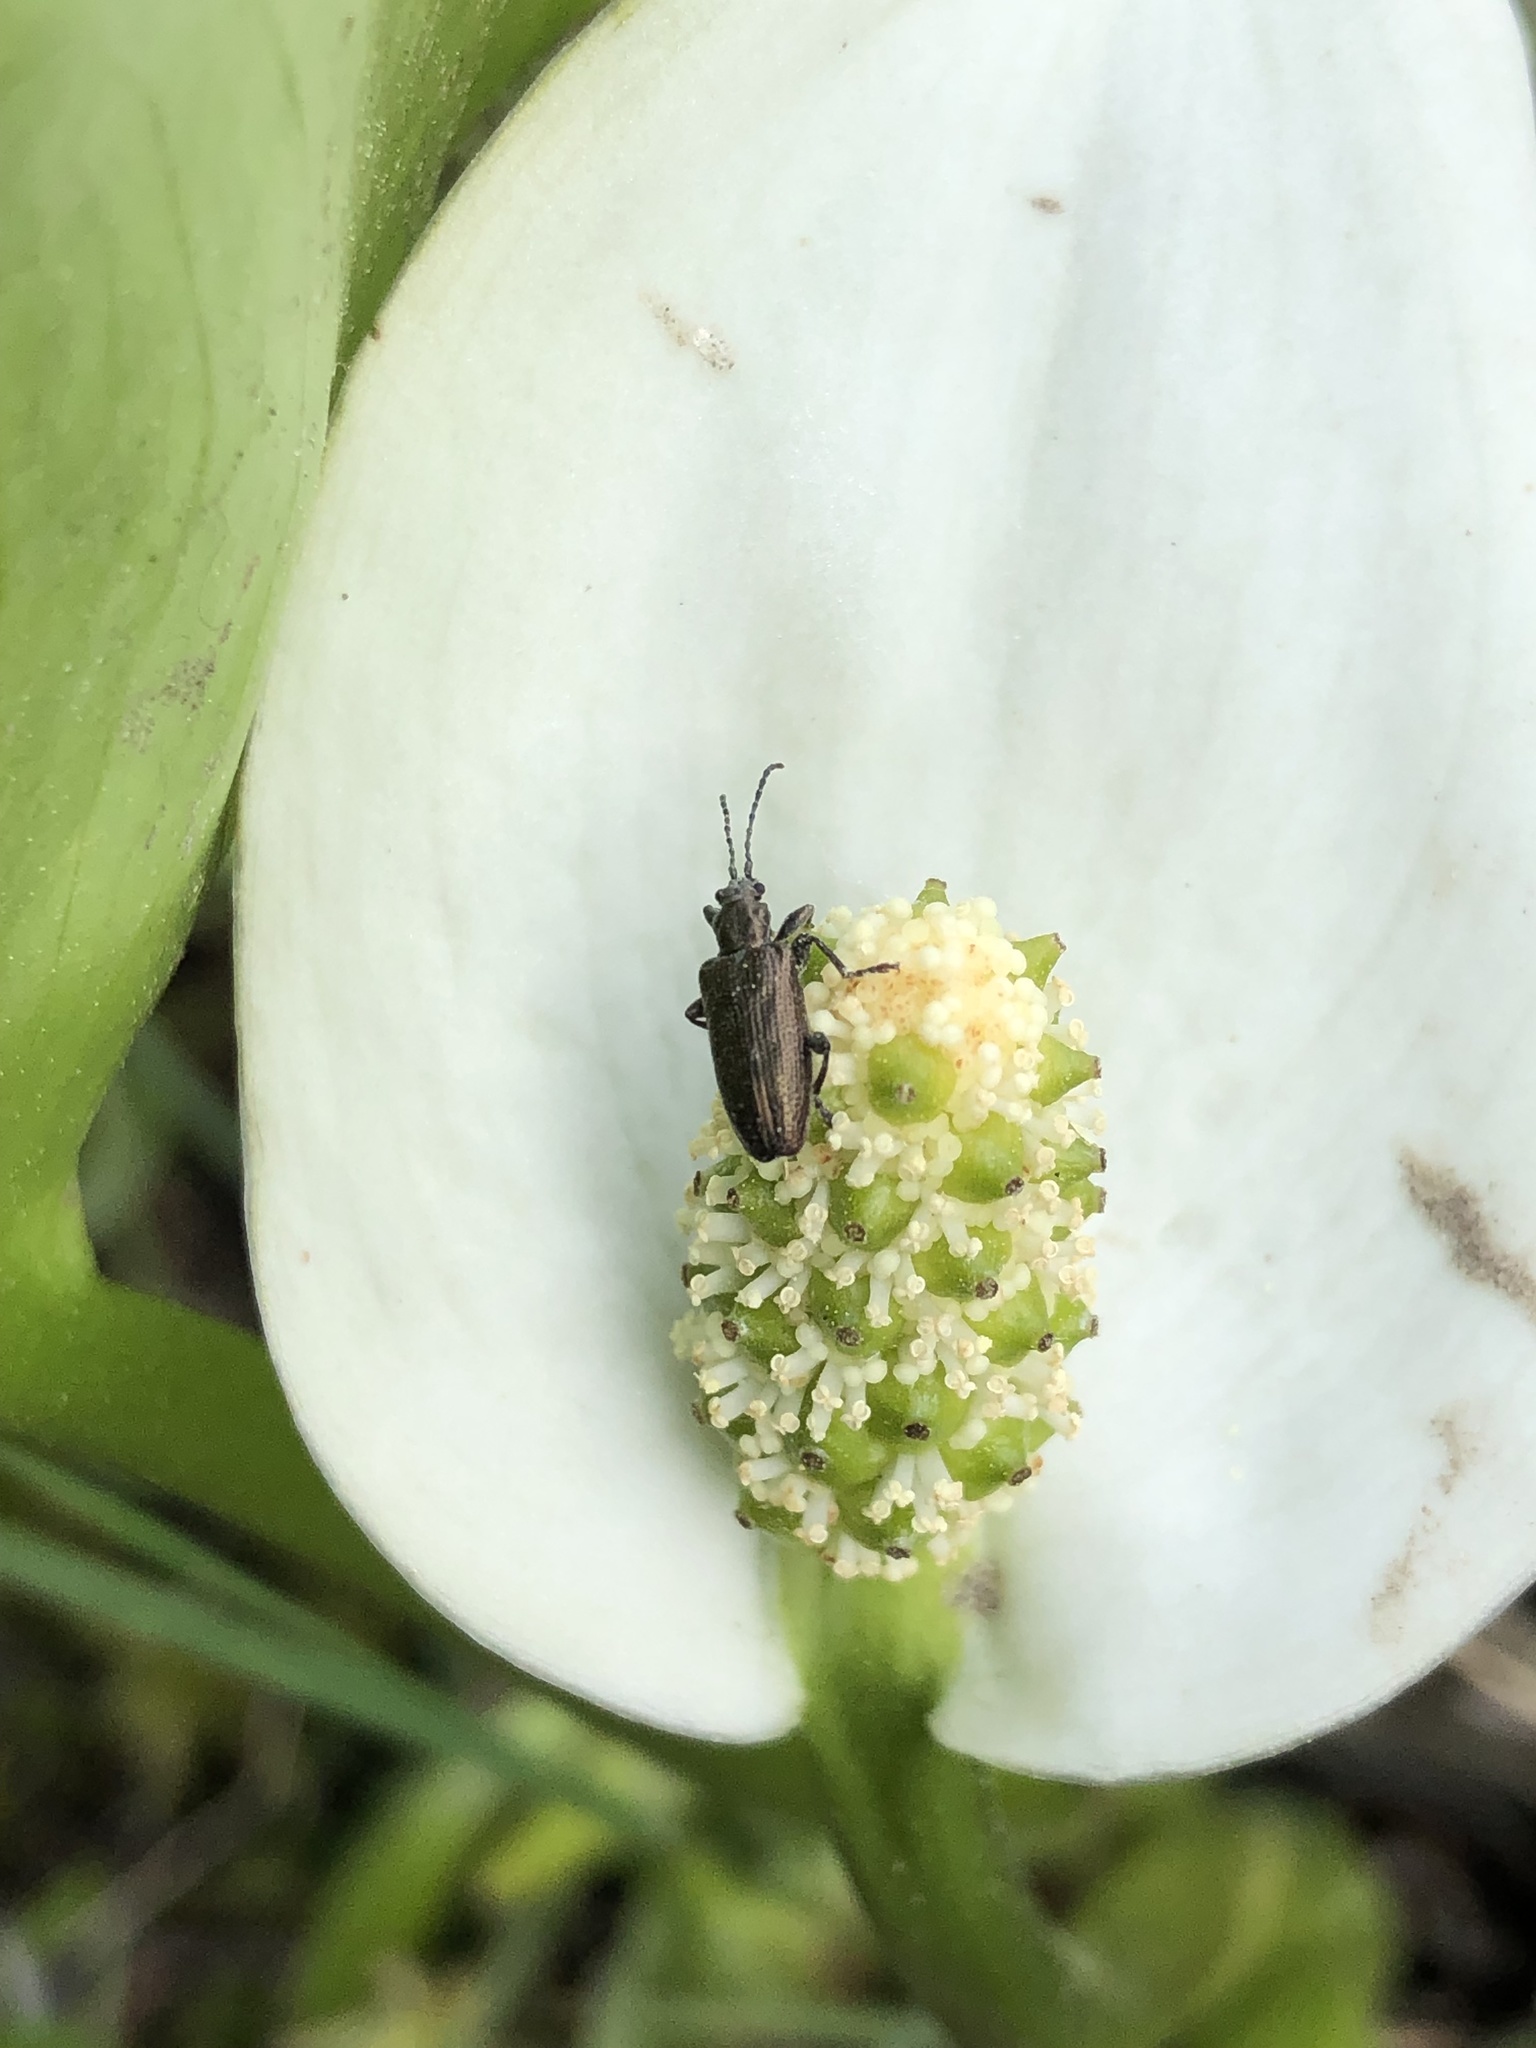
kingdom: Plantae
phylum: Tracheophyta
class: Liliopsida
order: Alismatales
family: Araceae
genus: Calla
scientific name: Calla palustris
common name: Bog arum
